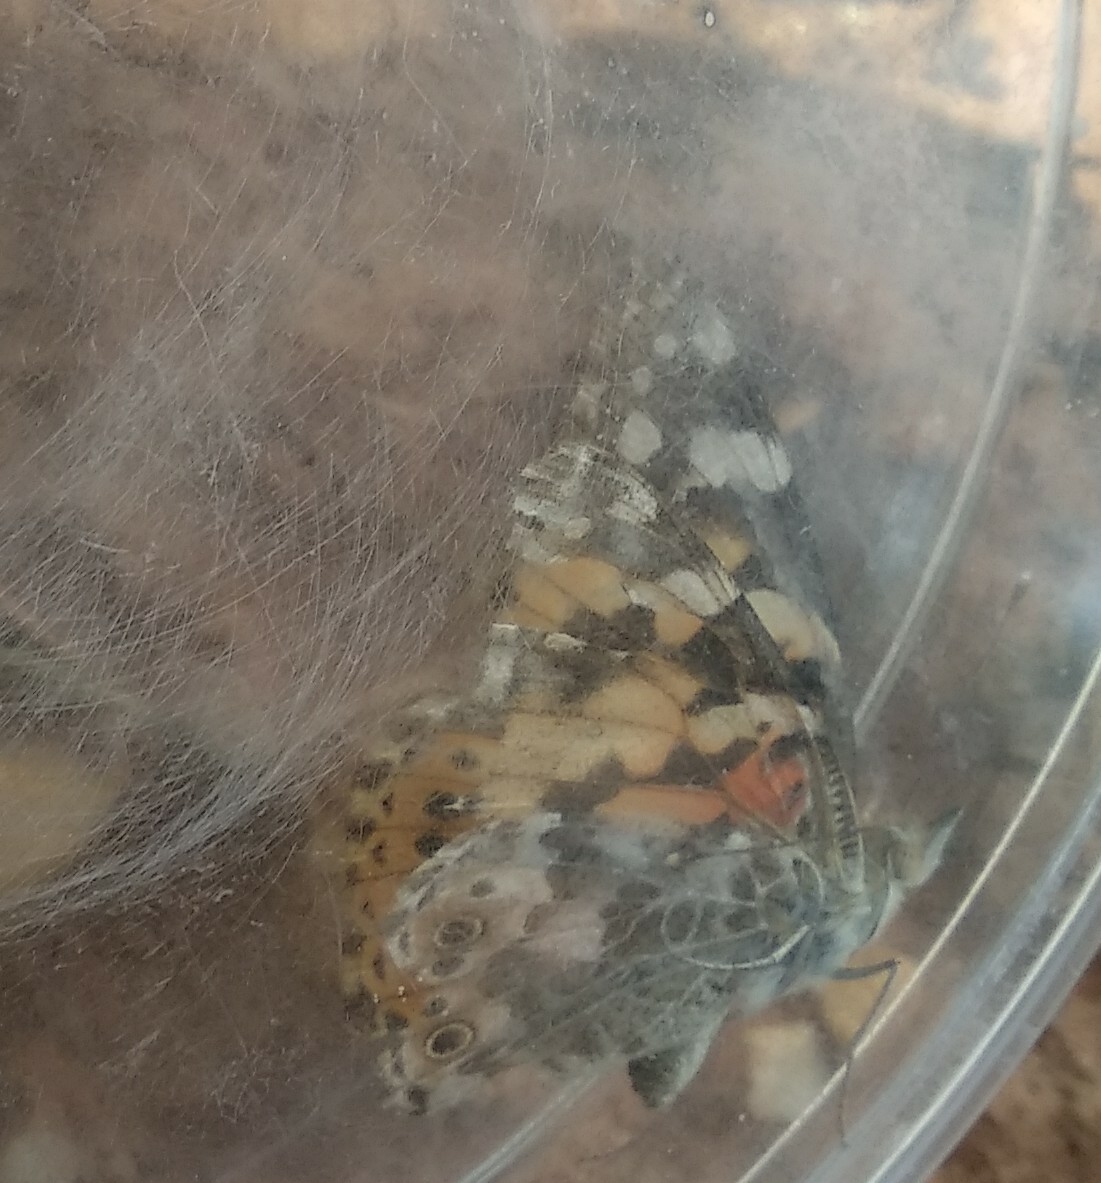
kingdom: Animalia
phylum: Arthropoda
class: Insecta
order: Lepidoptera
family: Nymphalidae
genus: Vanessa
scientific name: Vanessa cardui
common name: Painted lady
